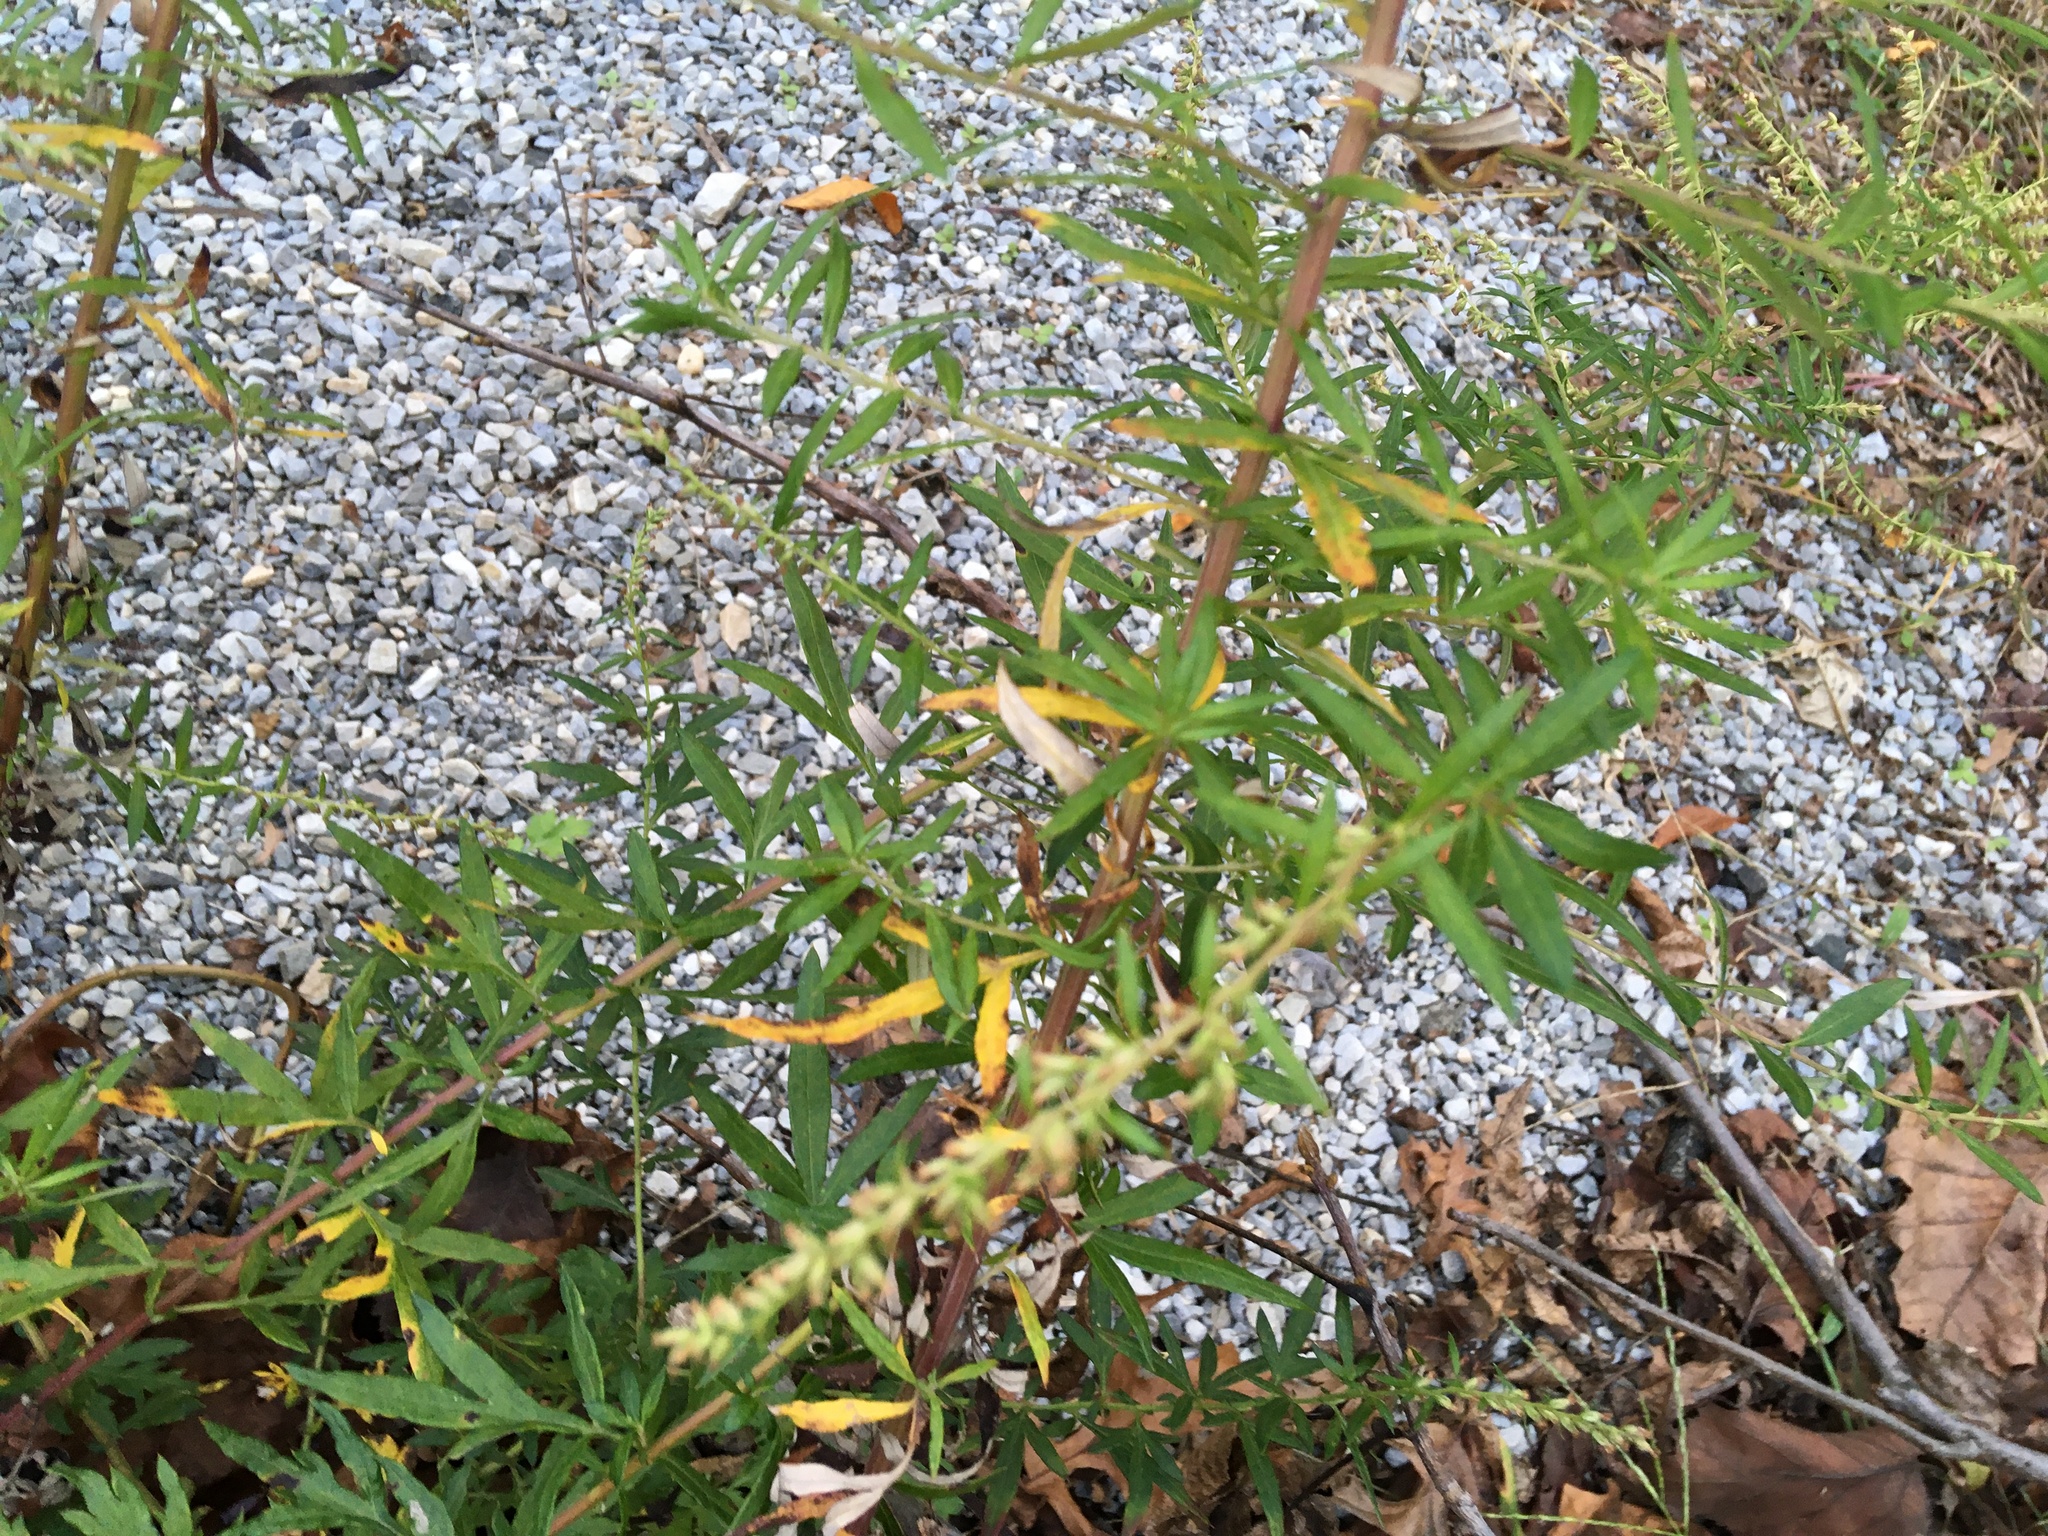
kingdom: Plantae
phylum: Tracheophyta
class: Magnoliopsida
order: Asterales
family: Asteraceae
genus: Artemisia
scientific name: Artemisia vulgaris
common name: Mugwort
